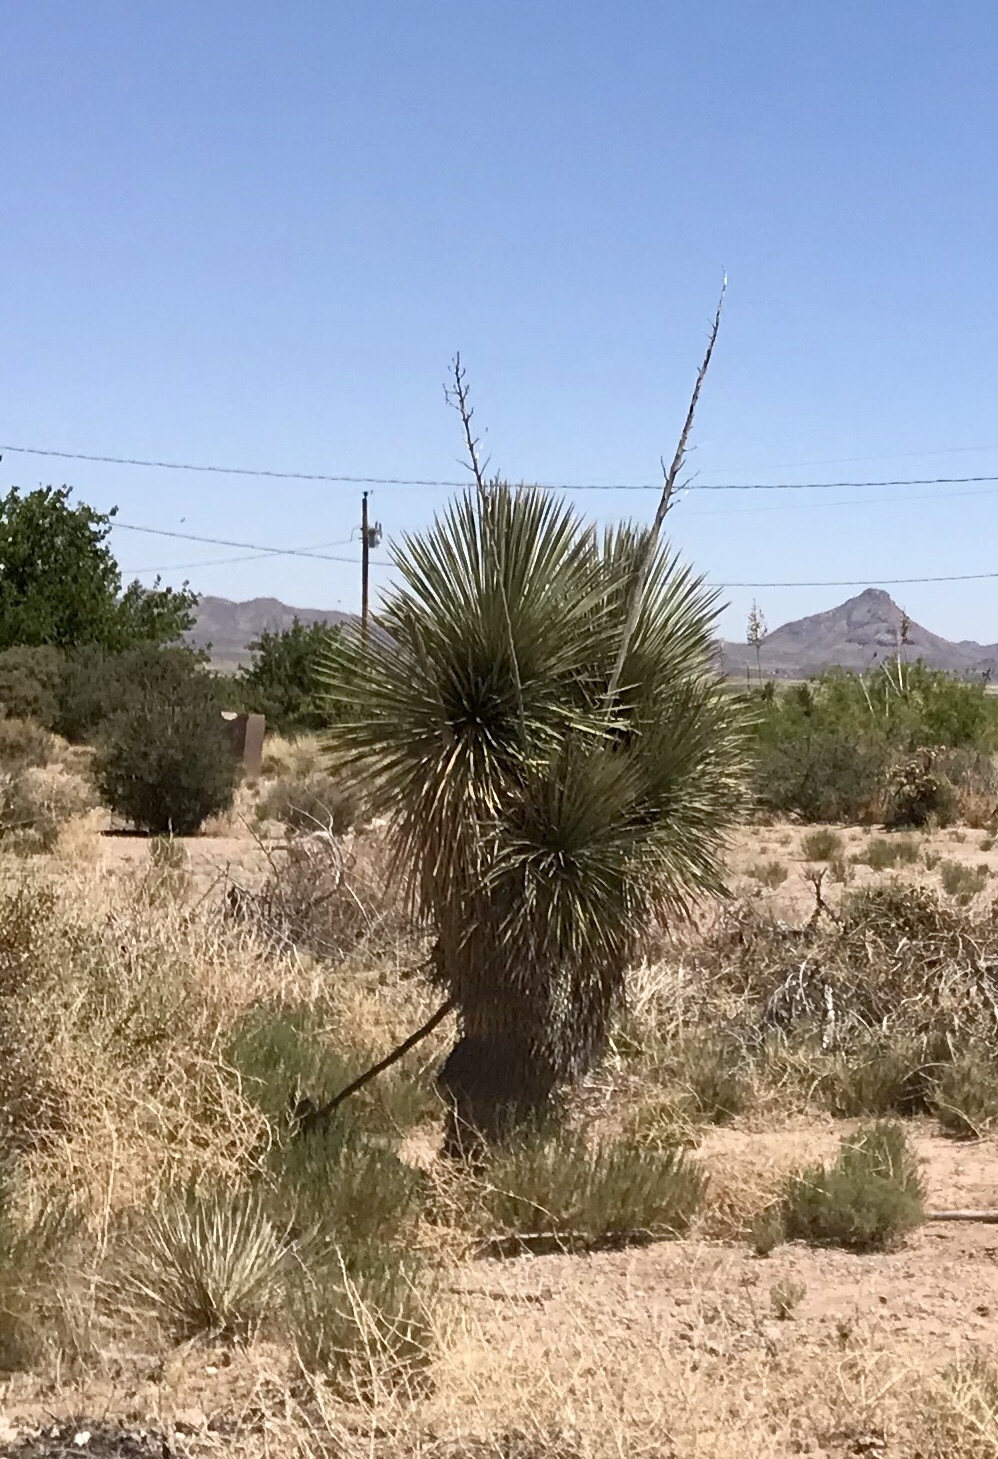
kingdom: Plantae
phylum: Tracheophyta
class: Liliopsida
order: Asparagales
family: Asparagaceae
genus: Yucca
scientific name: Yucca elata
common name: Palmella
